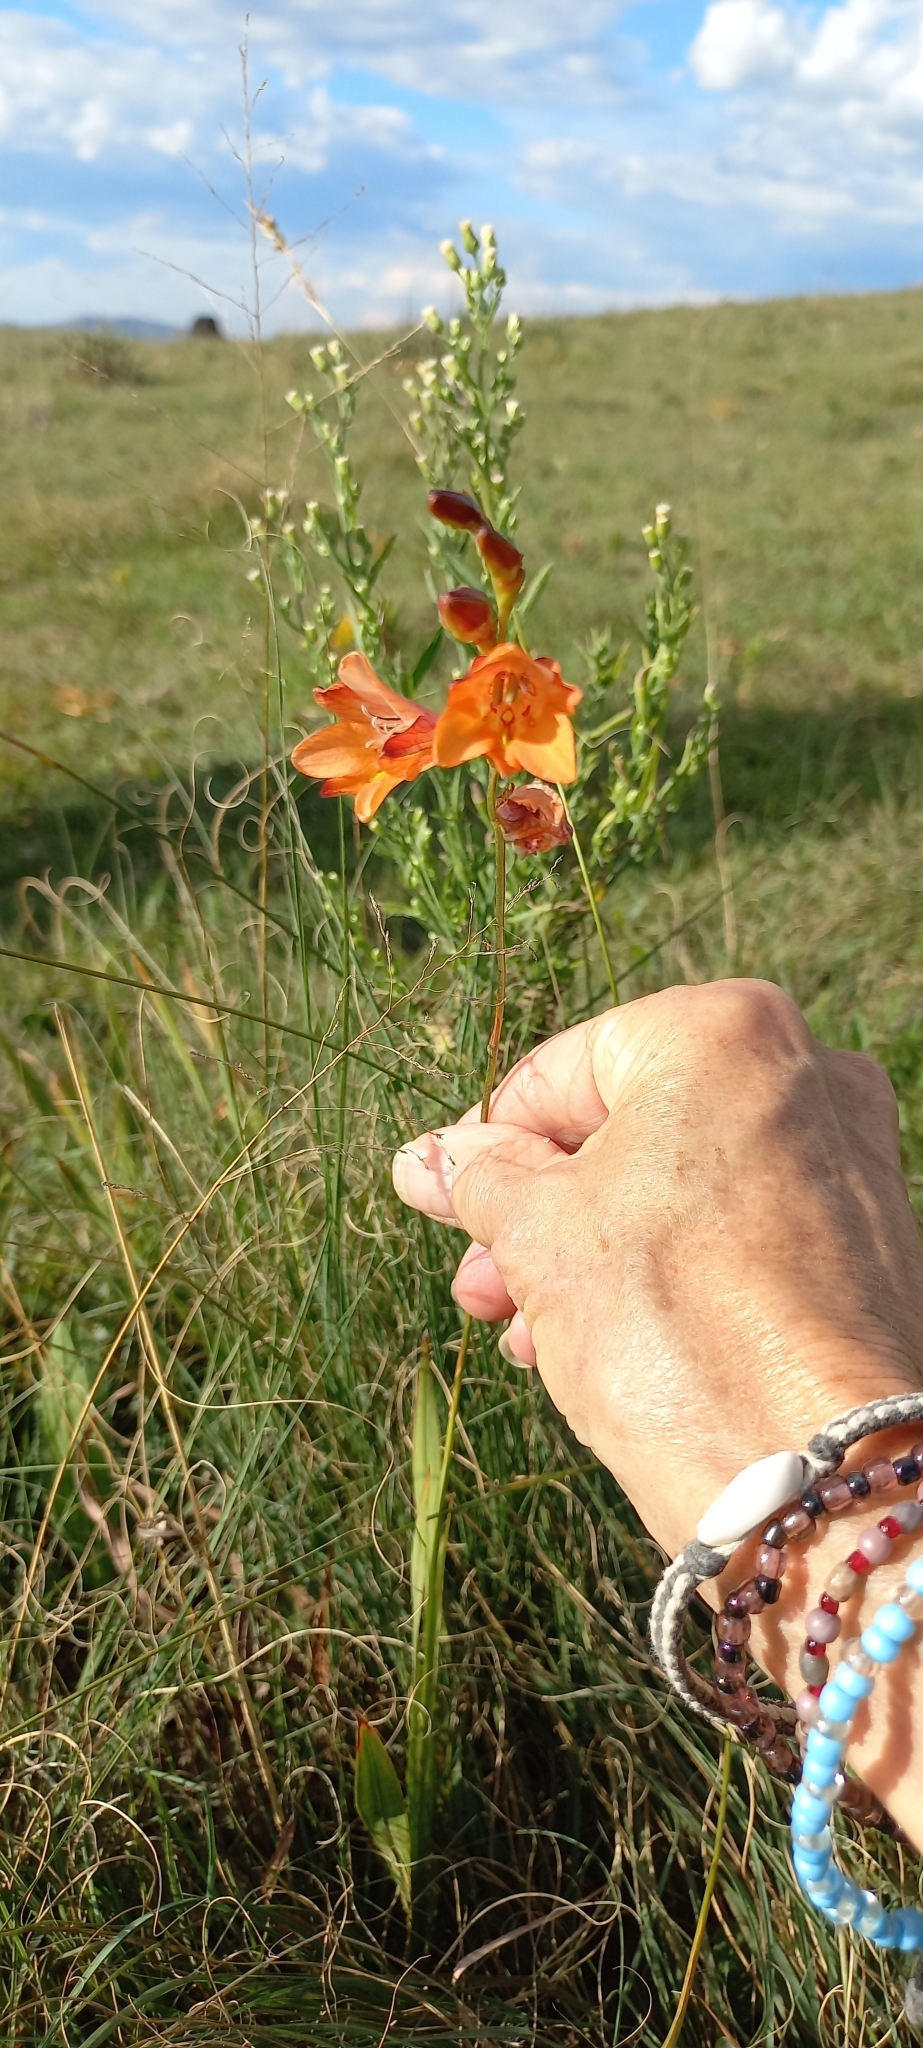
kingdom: Plantae
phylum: Tracheophyta
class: Liliopsida
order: Asparagales
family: Iridaceae
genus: Tritonia
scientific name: Tritonia disticha
